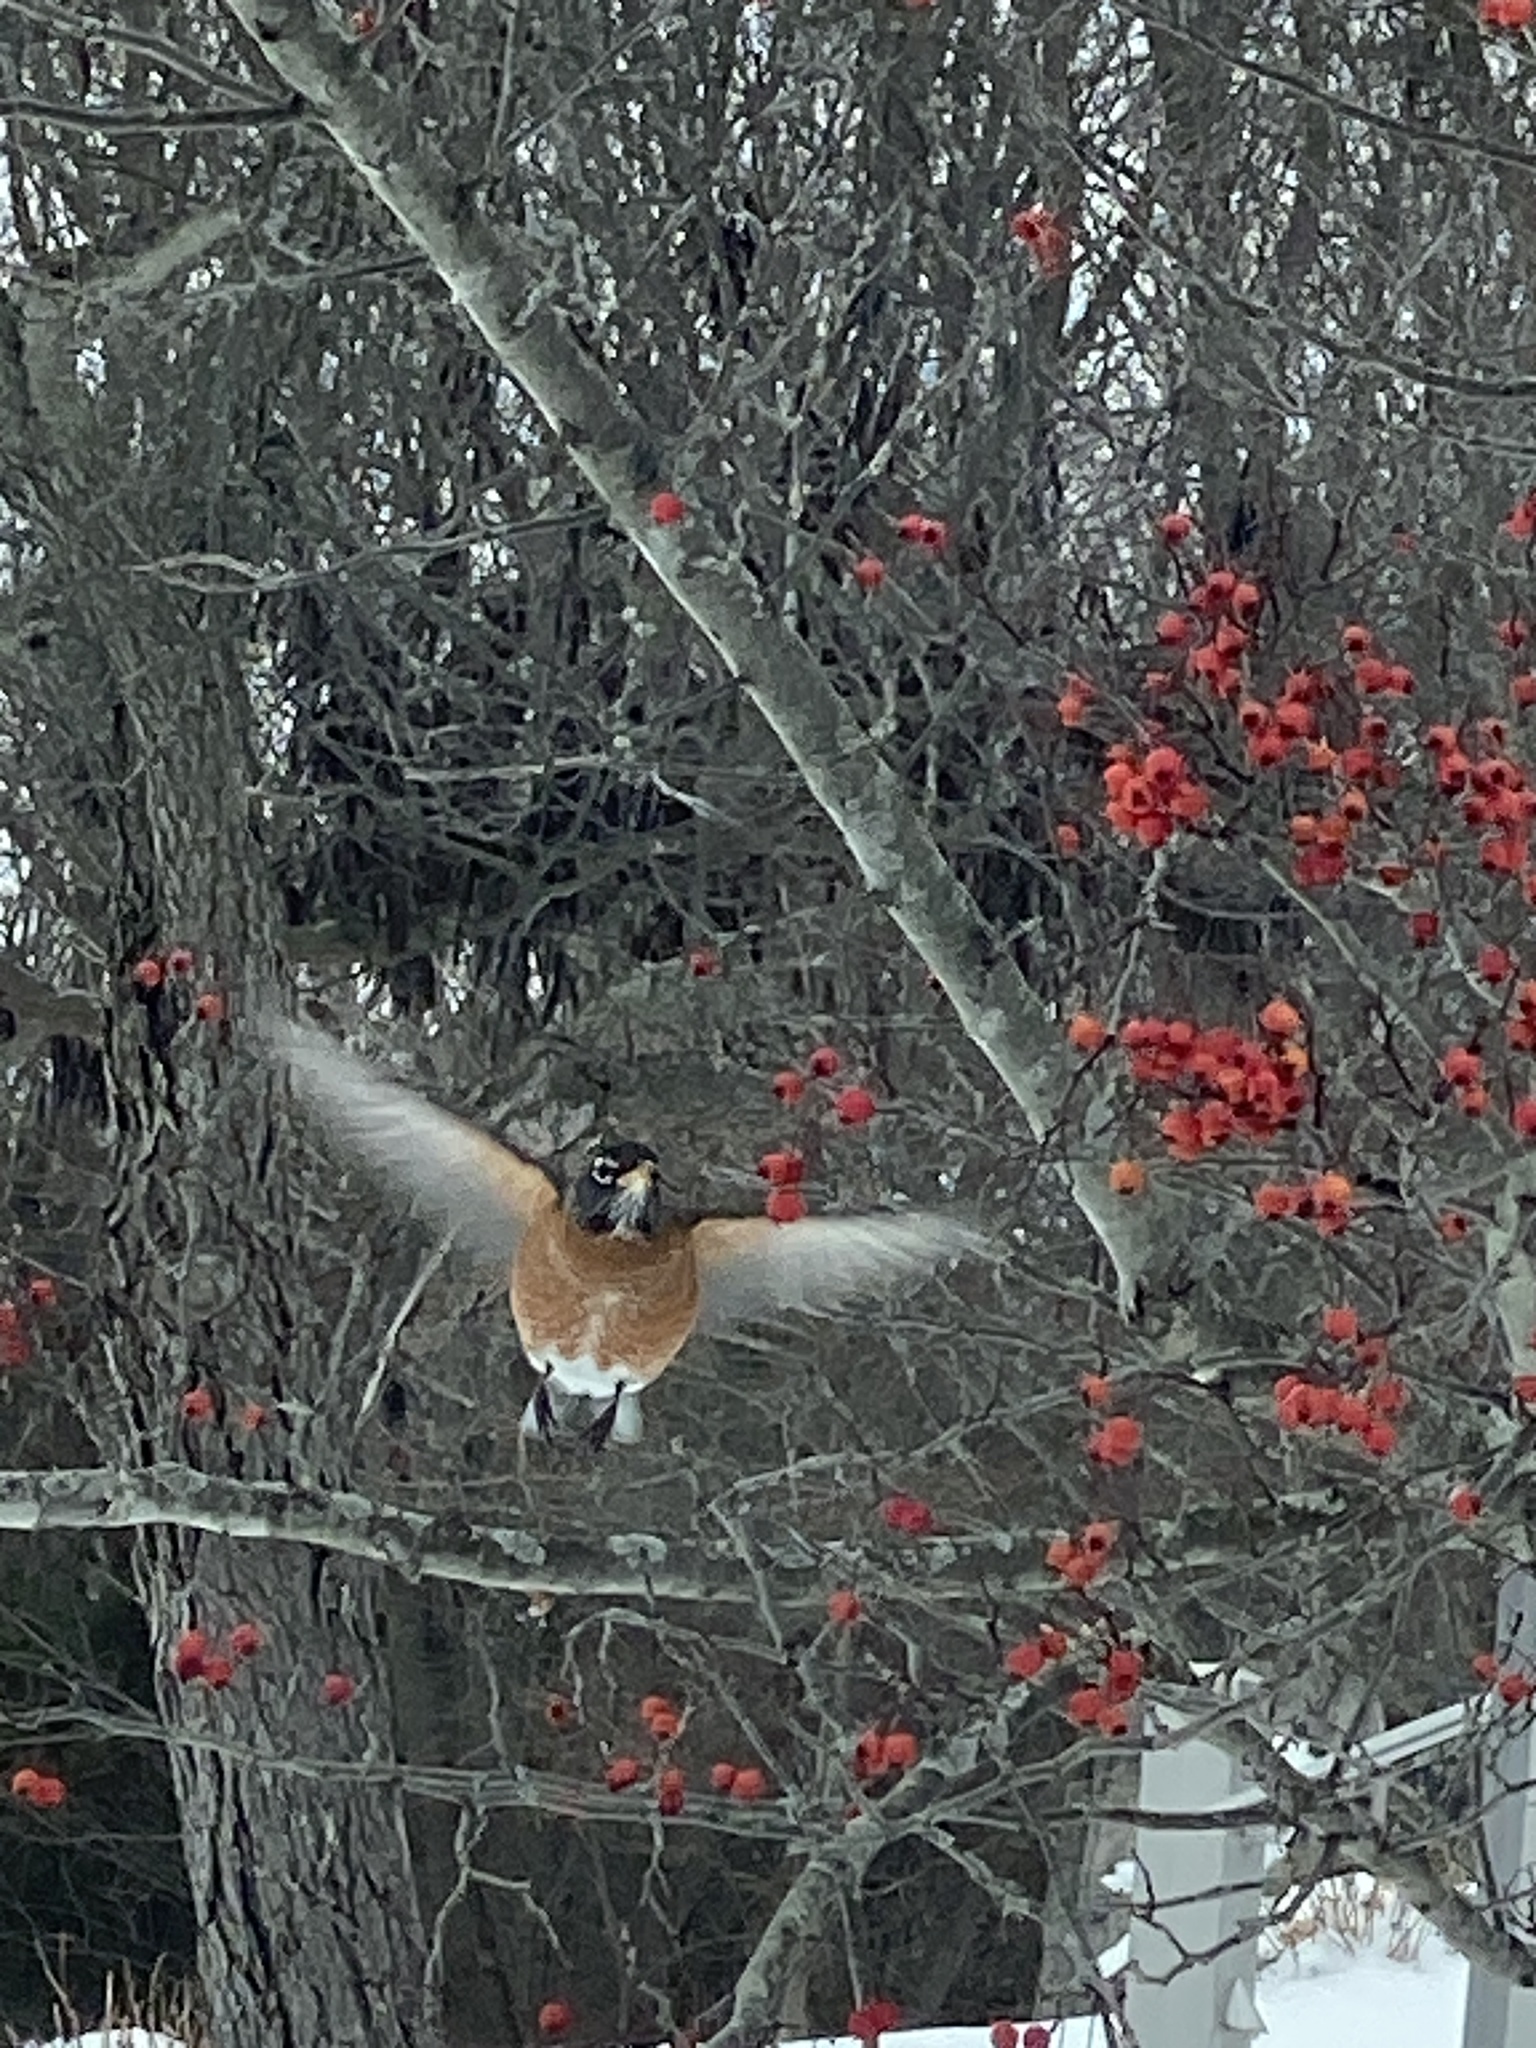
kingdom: Animalia
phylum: Chordata
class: Aves
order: Passeriformes
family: Turdidae
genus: Turdus
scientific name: Turdus migratorius
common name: American robin
